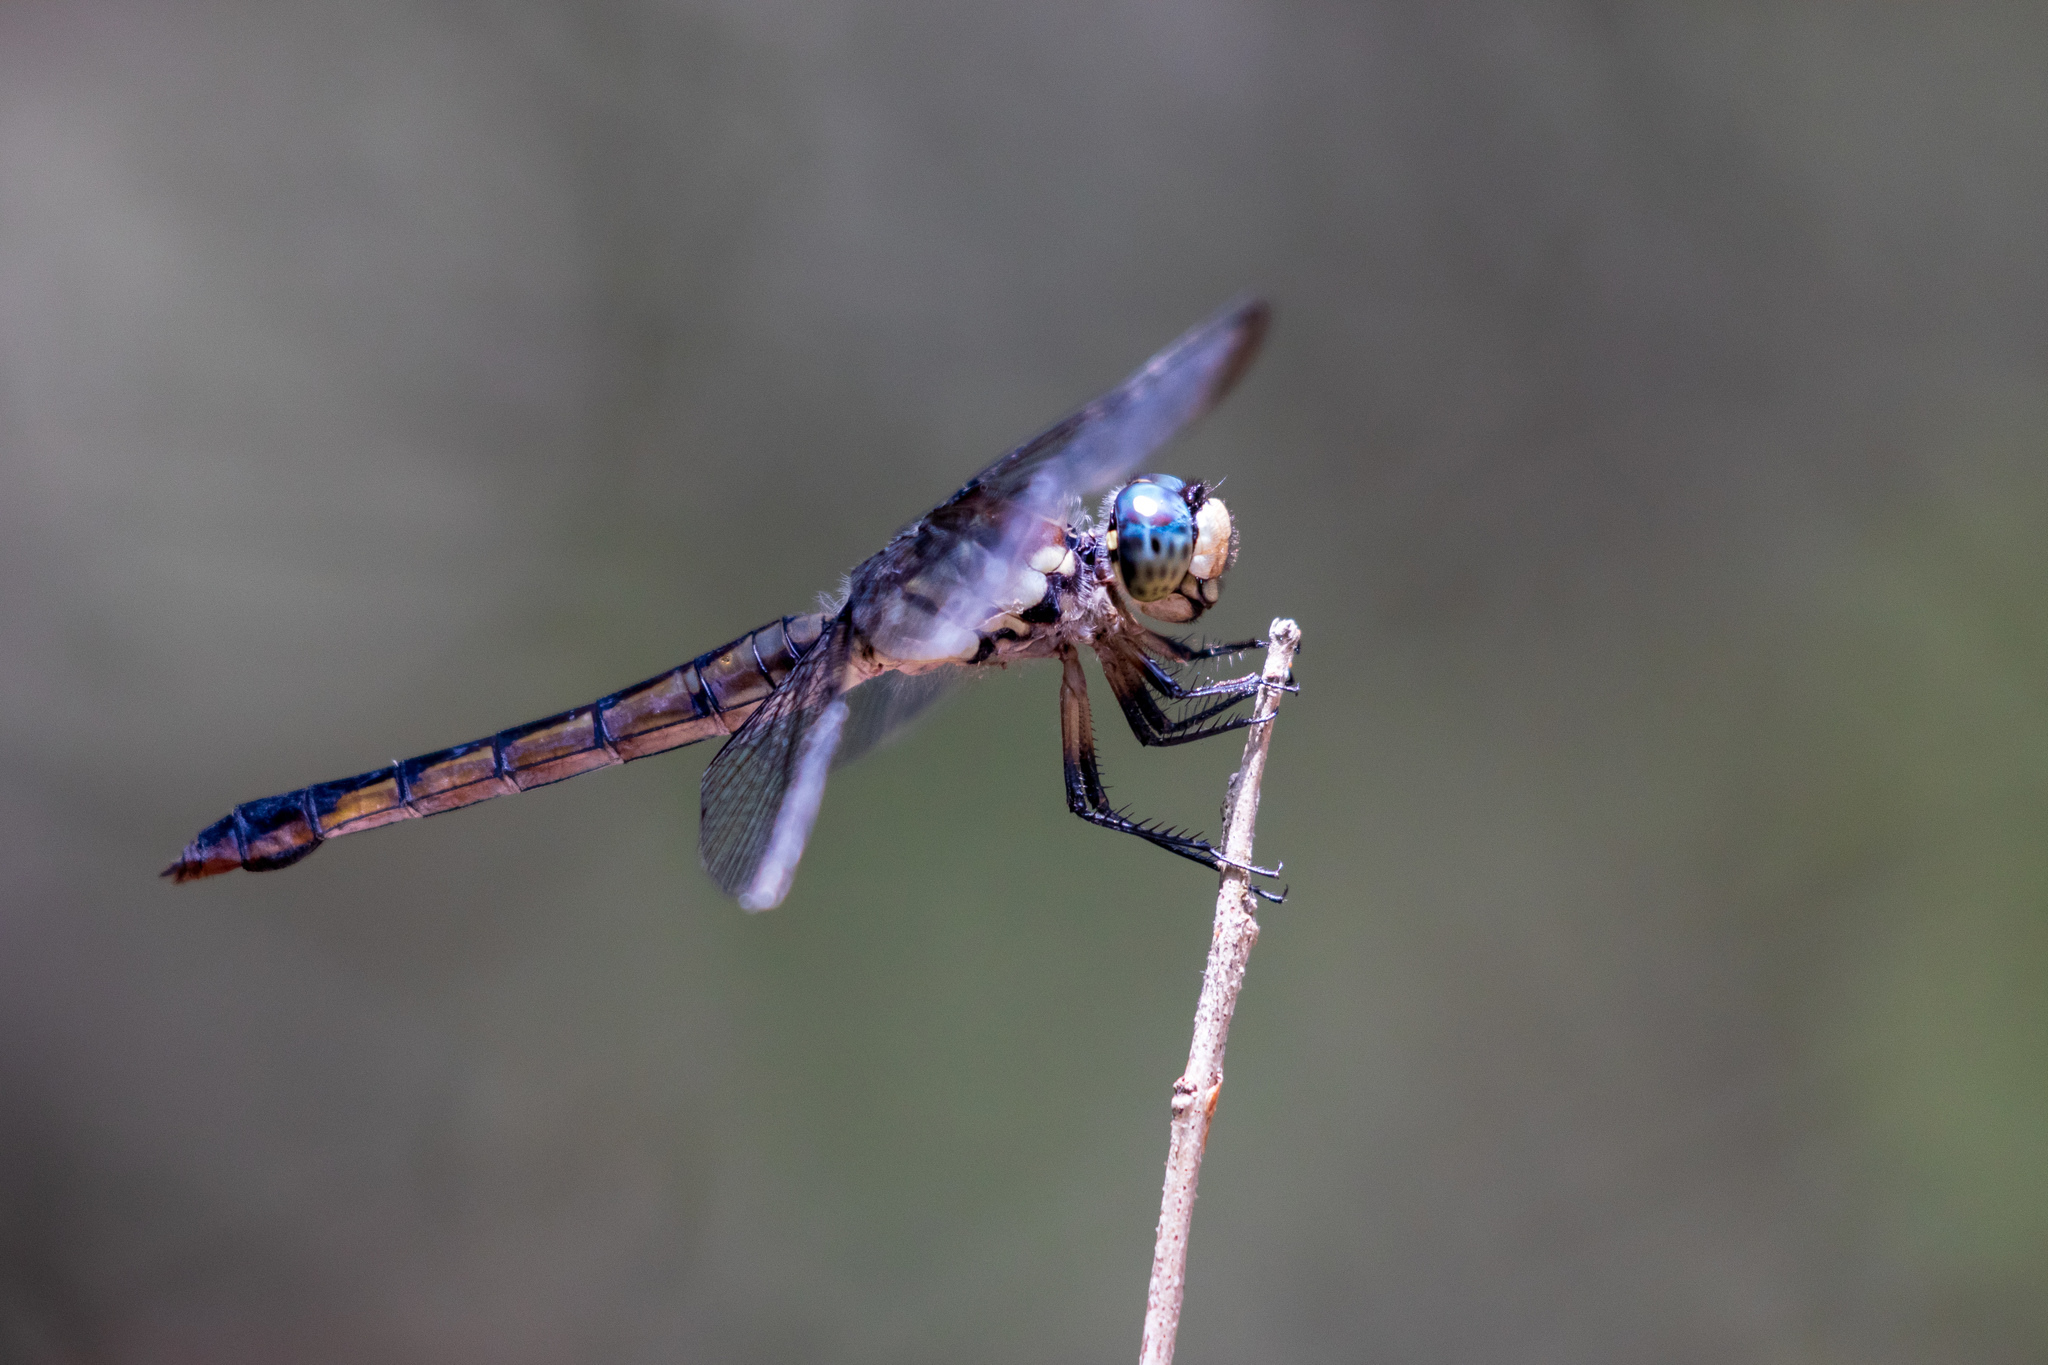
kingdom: Animalia
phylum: Arthropoda
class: Insecta
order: Odonata
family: Libellulidae
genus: Libellula
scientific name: Libellula vibrans
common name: Great blue skimmer
